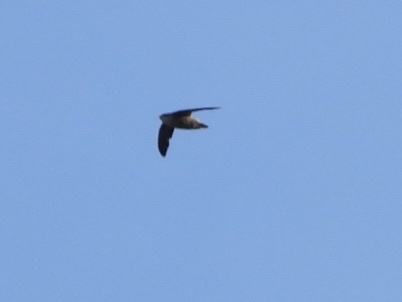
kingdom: Animalia
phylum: Chordata
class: Aves
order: Apodiformes
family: Apodidae
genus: Chaetura
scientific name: Chaetura vauxi
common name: Vaux's swift
